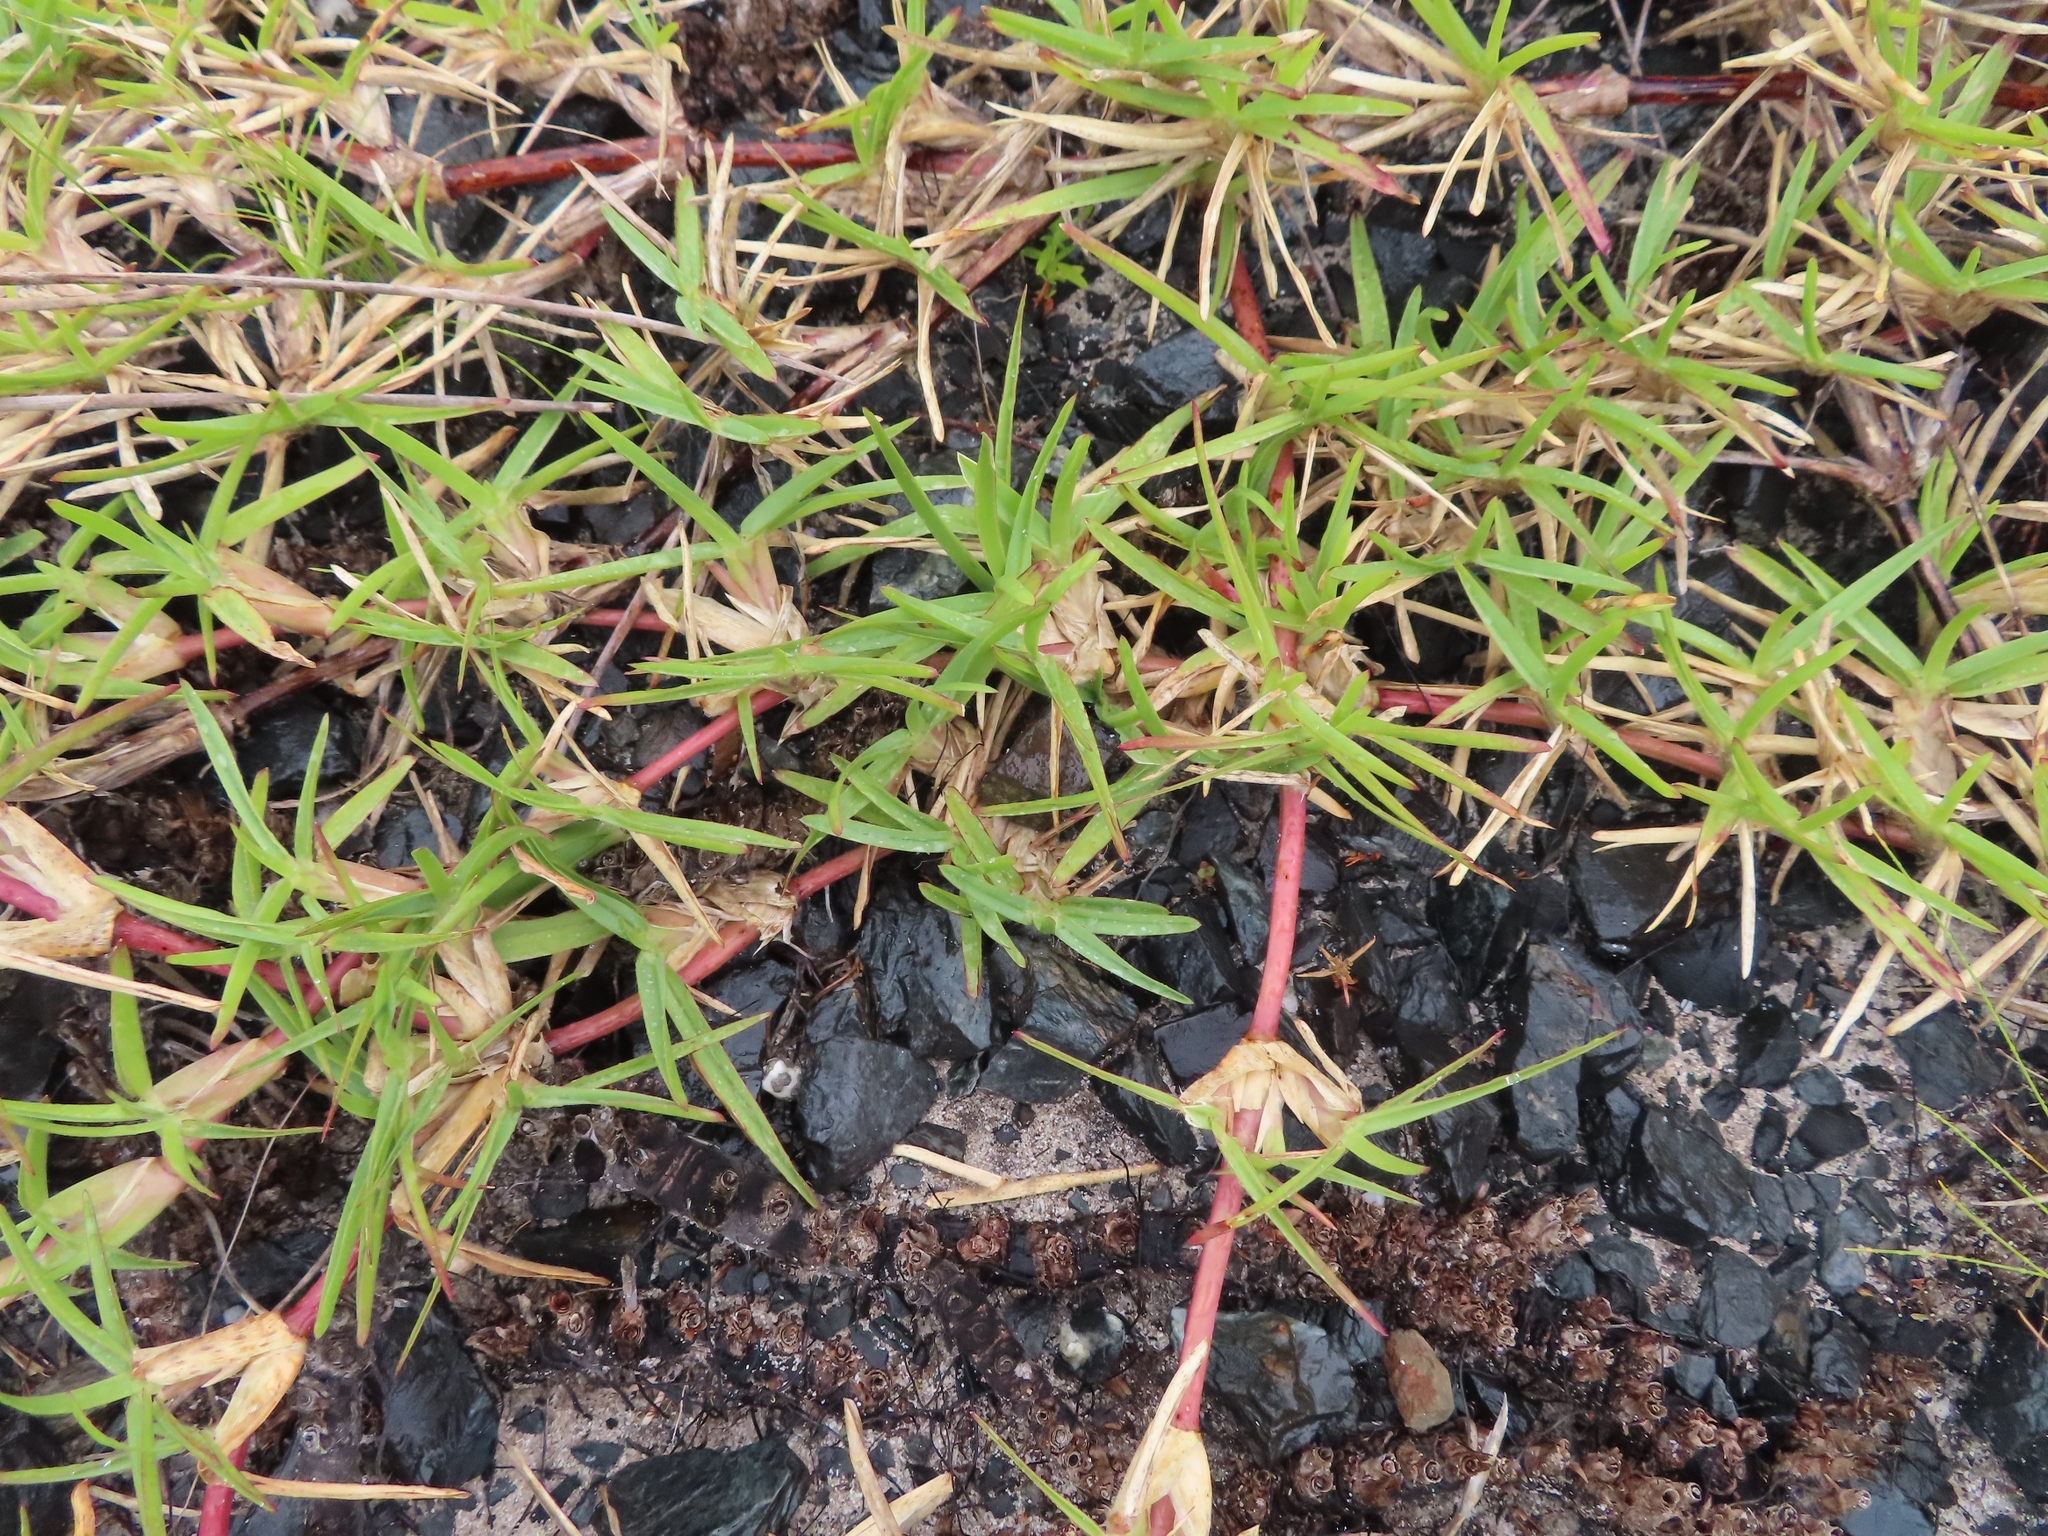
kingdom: Plantae
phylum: Tracheophyta
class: Liliopsida
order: Poales
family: Poaceae
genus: Stenotaphrum
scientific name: Stenotaphrum secundatum
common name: St. augustine grass
